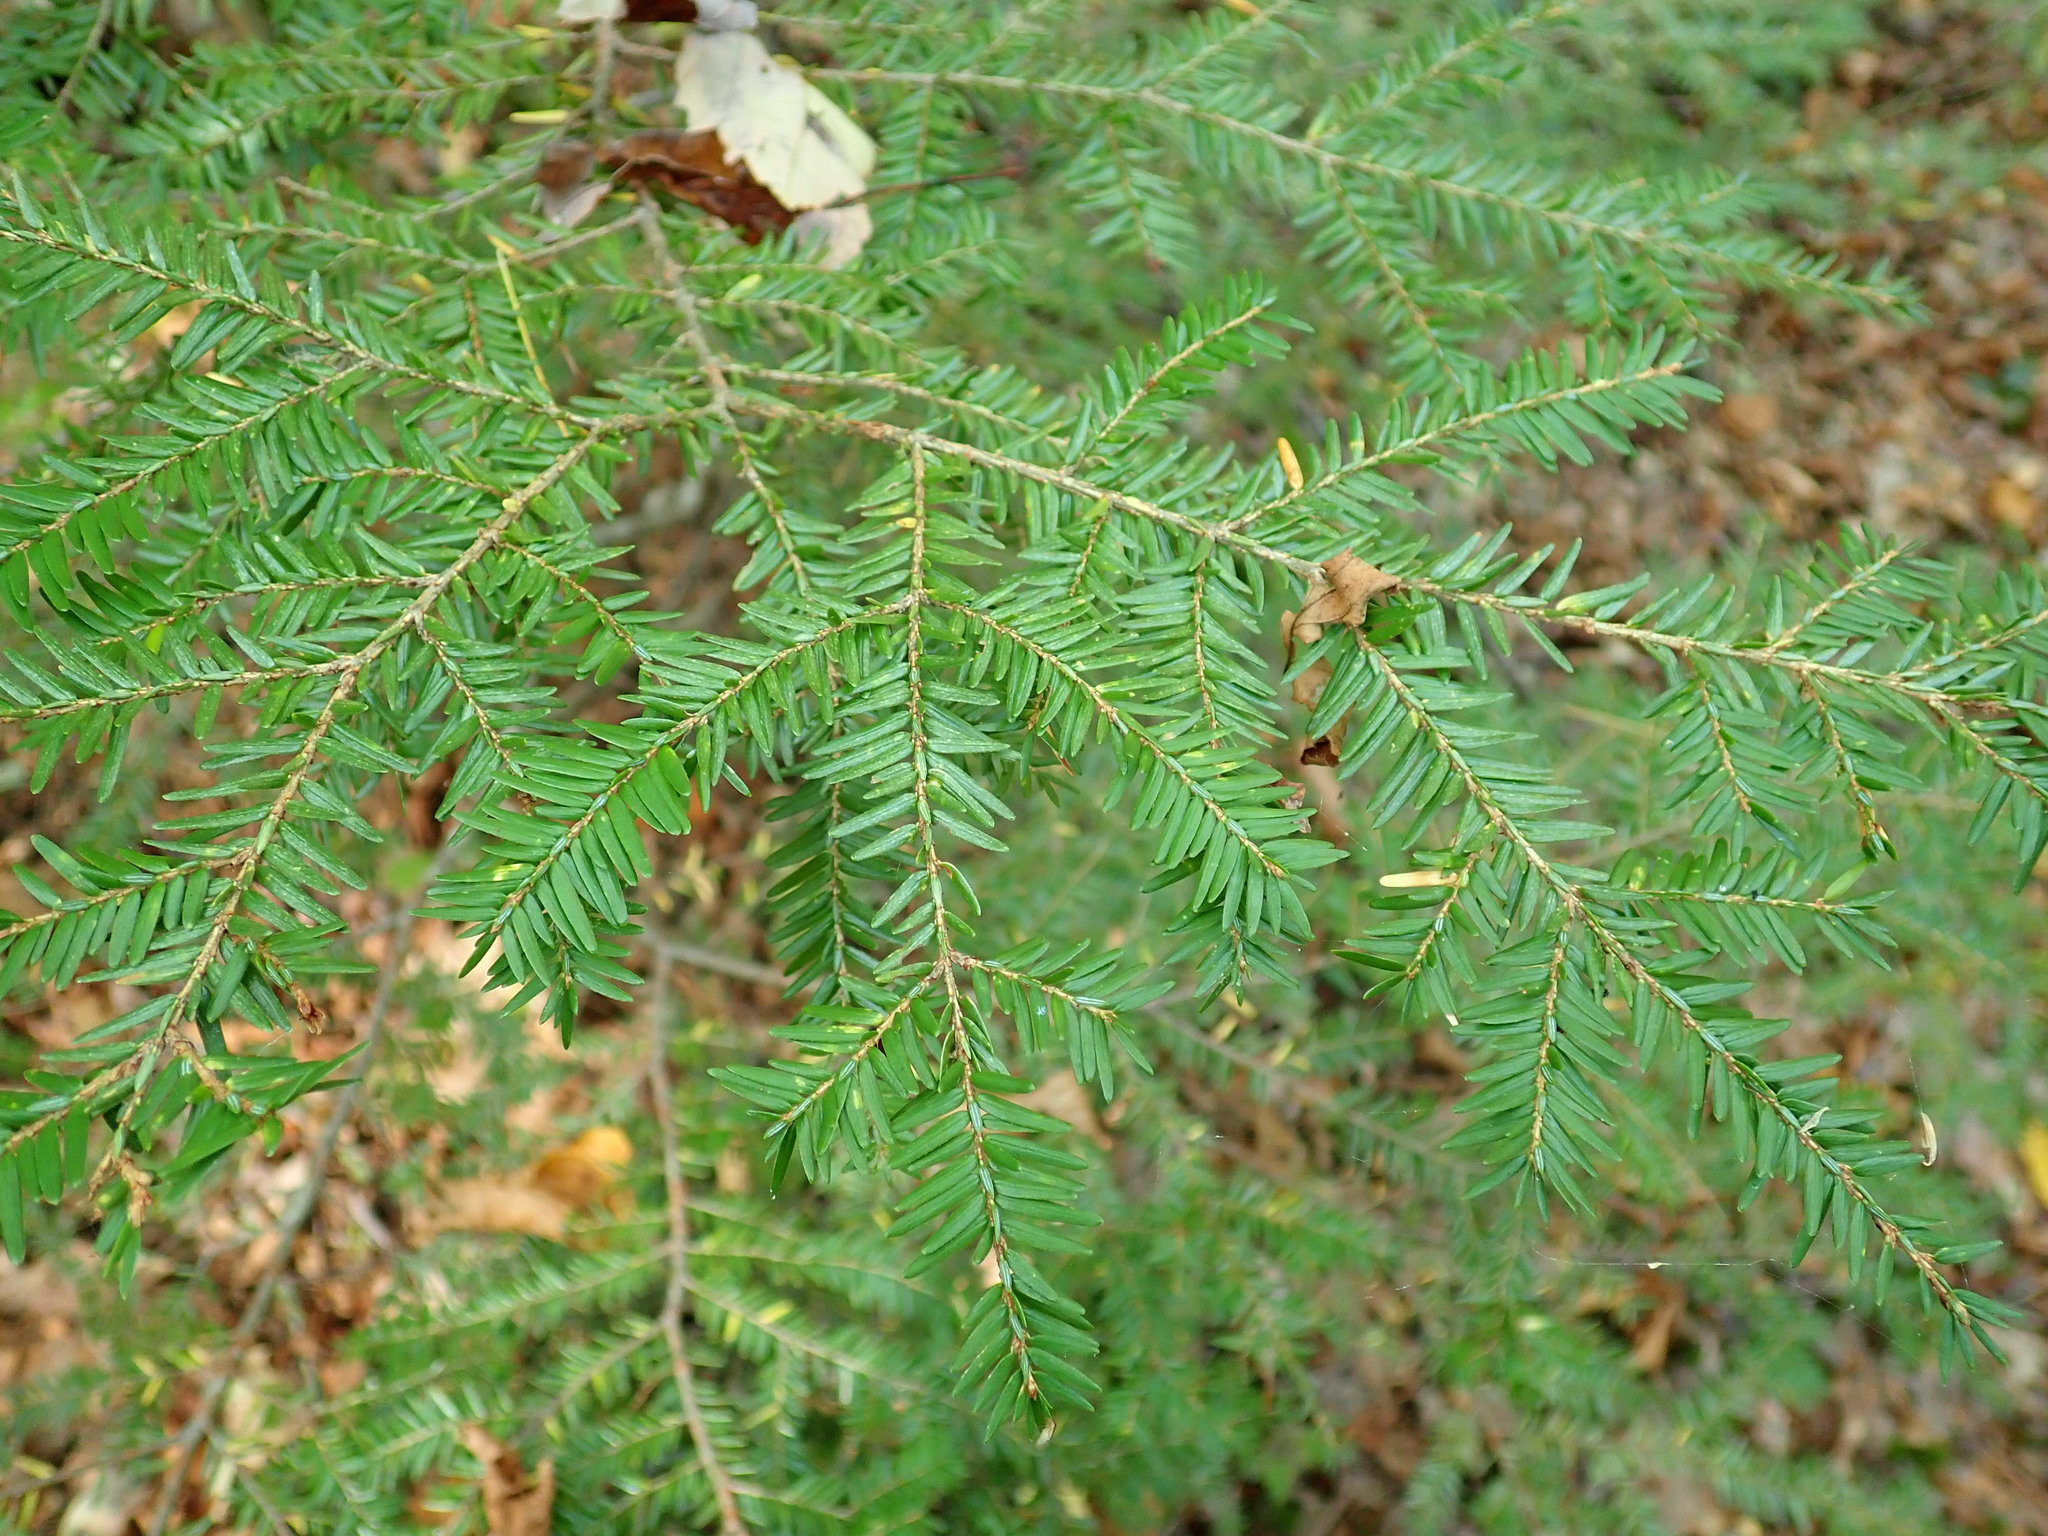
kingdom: Plantae
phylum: Tracheophyta
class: Pinopsida
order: Pinales
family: Pinaceae
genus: Tsuga
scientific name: Tsuga canadensis
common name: Eastern hemlock
